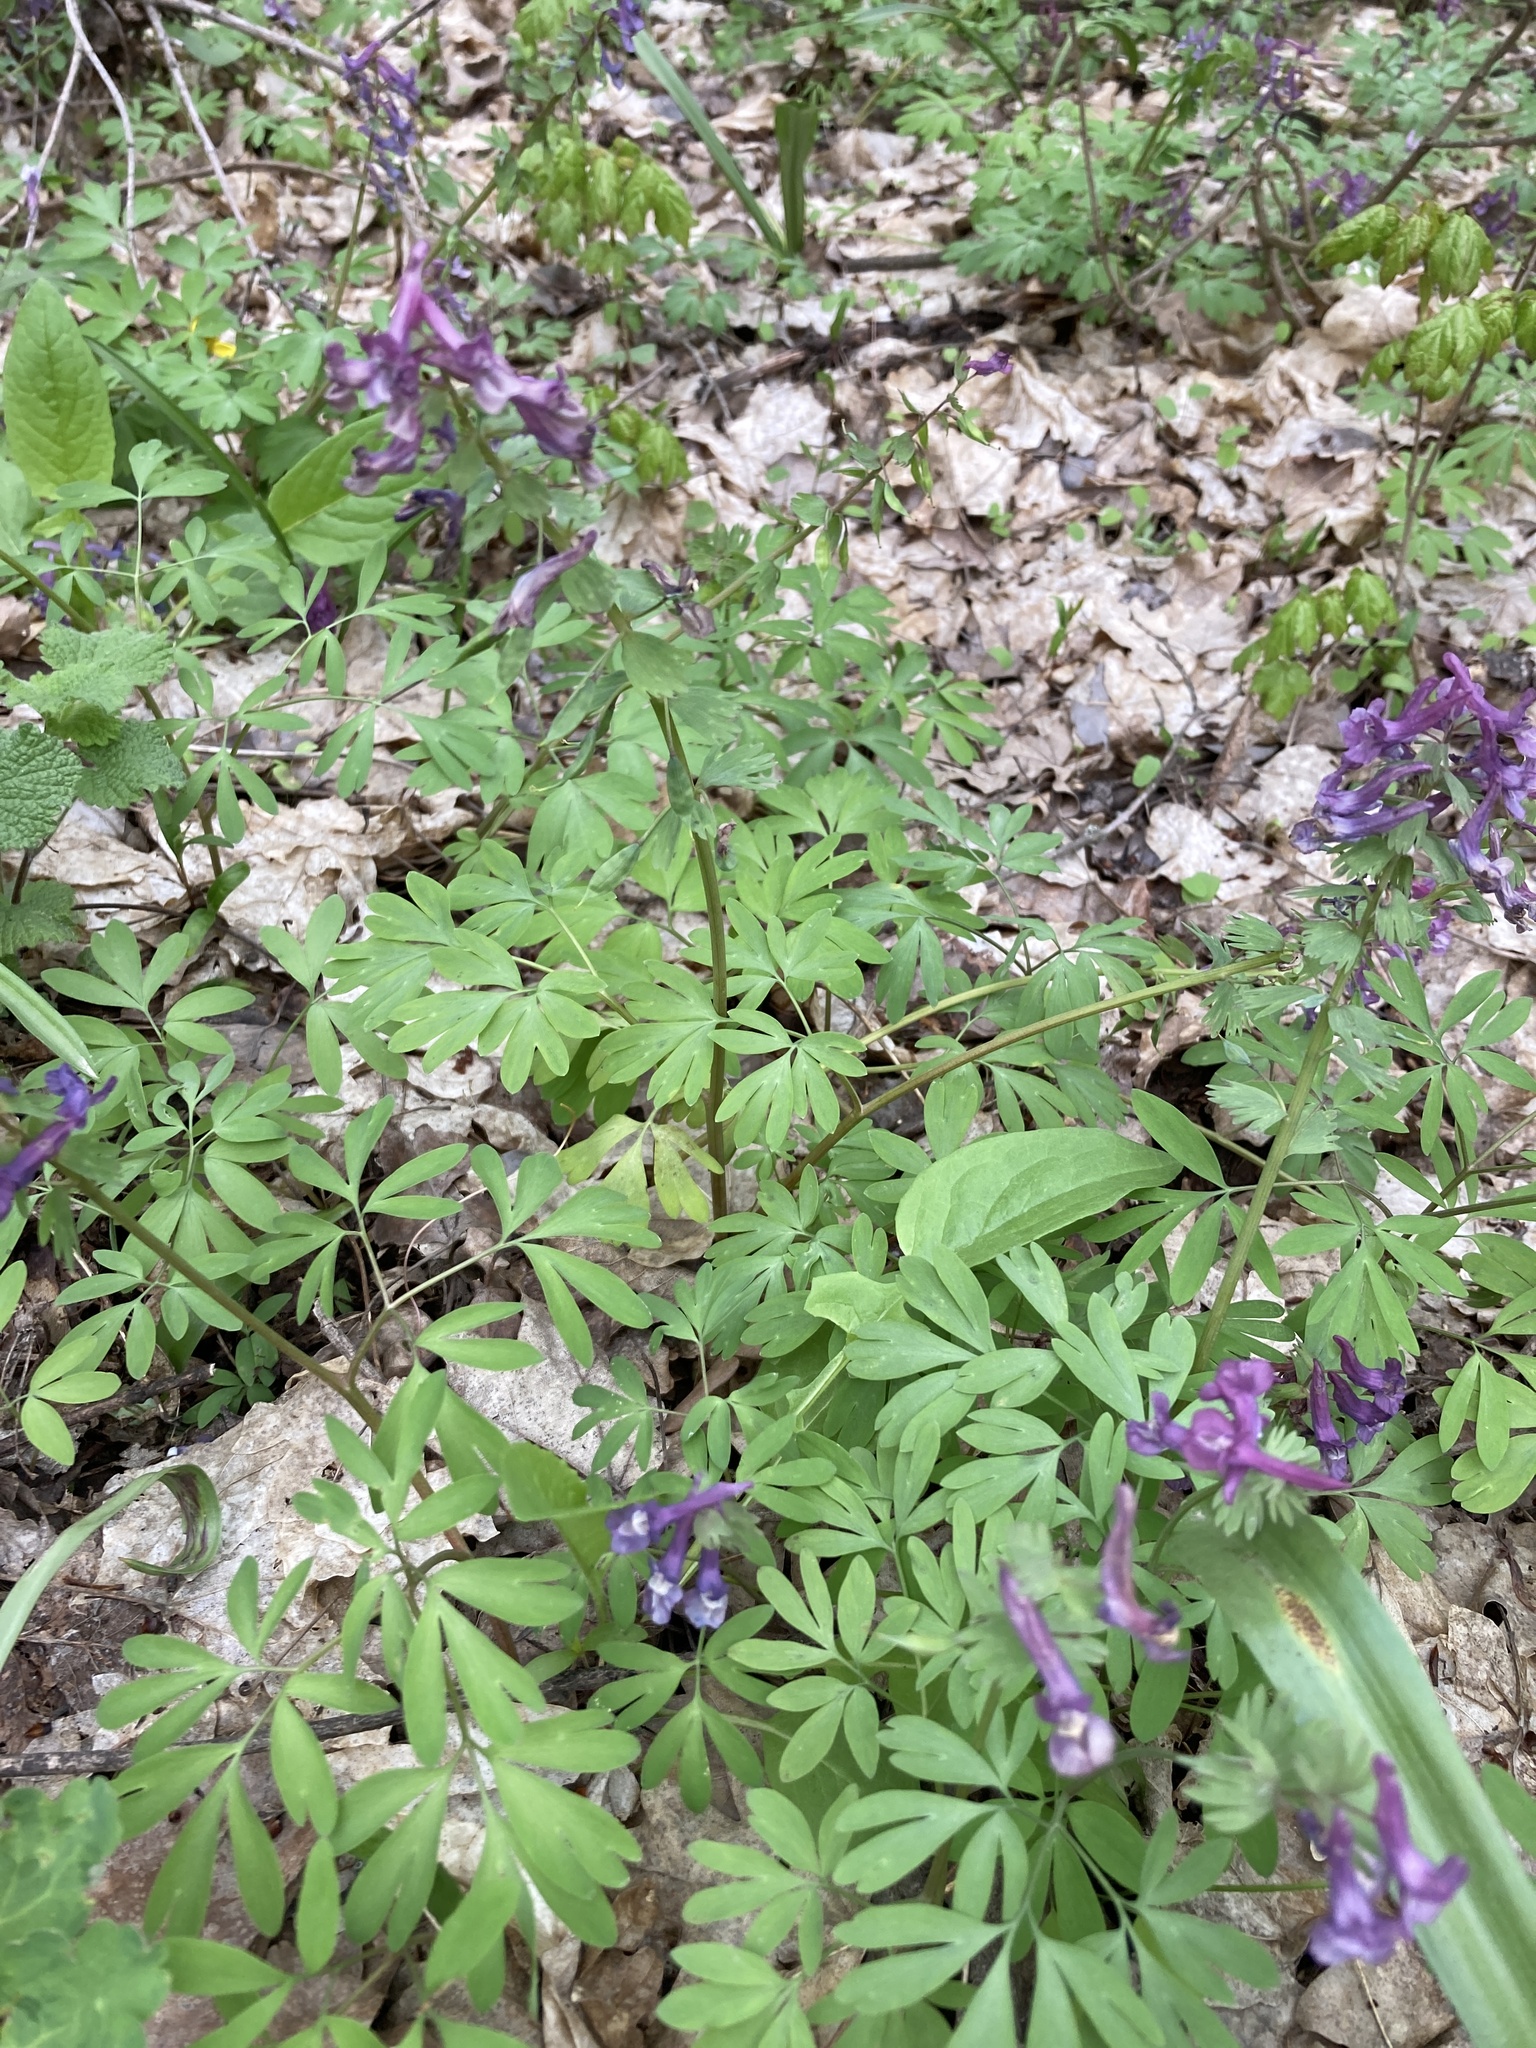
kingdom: Plantae
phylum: Tracheophyta
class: Magnoliopsida
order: Ranunculales
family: Papaveraceae
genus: Corydalis
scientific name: Corydalis solida
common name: Bird-in-a-bush
